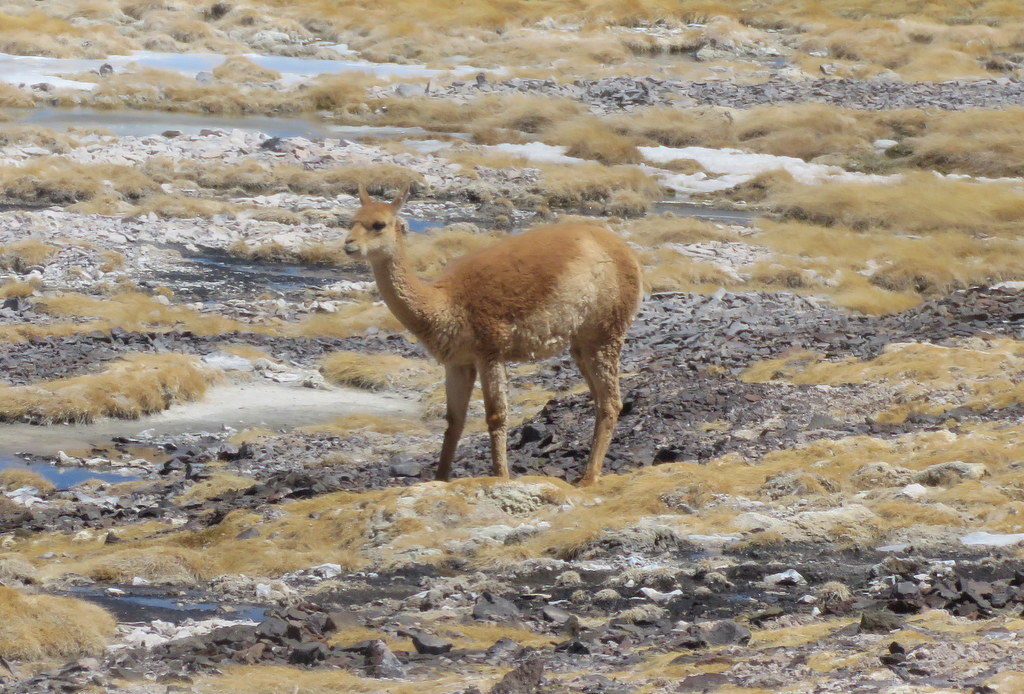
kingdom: Animalia
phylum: Chordata
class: Mammalia
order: Artiodactyla
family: Camelidae
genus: Vicugna
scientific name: Vicugna vicugna
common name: Vicugna
